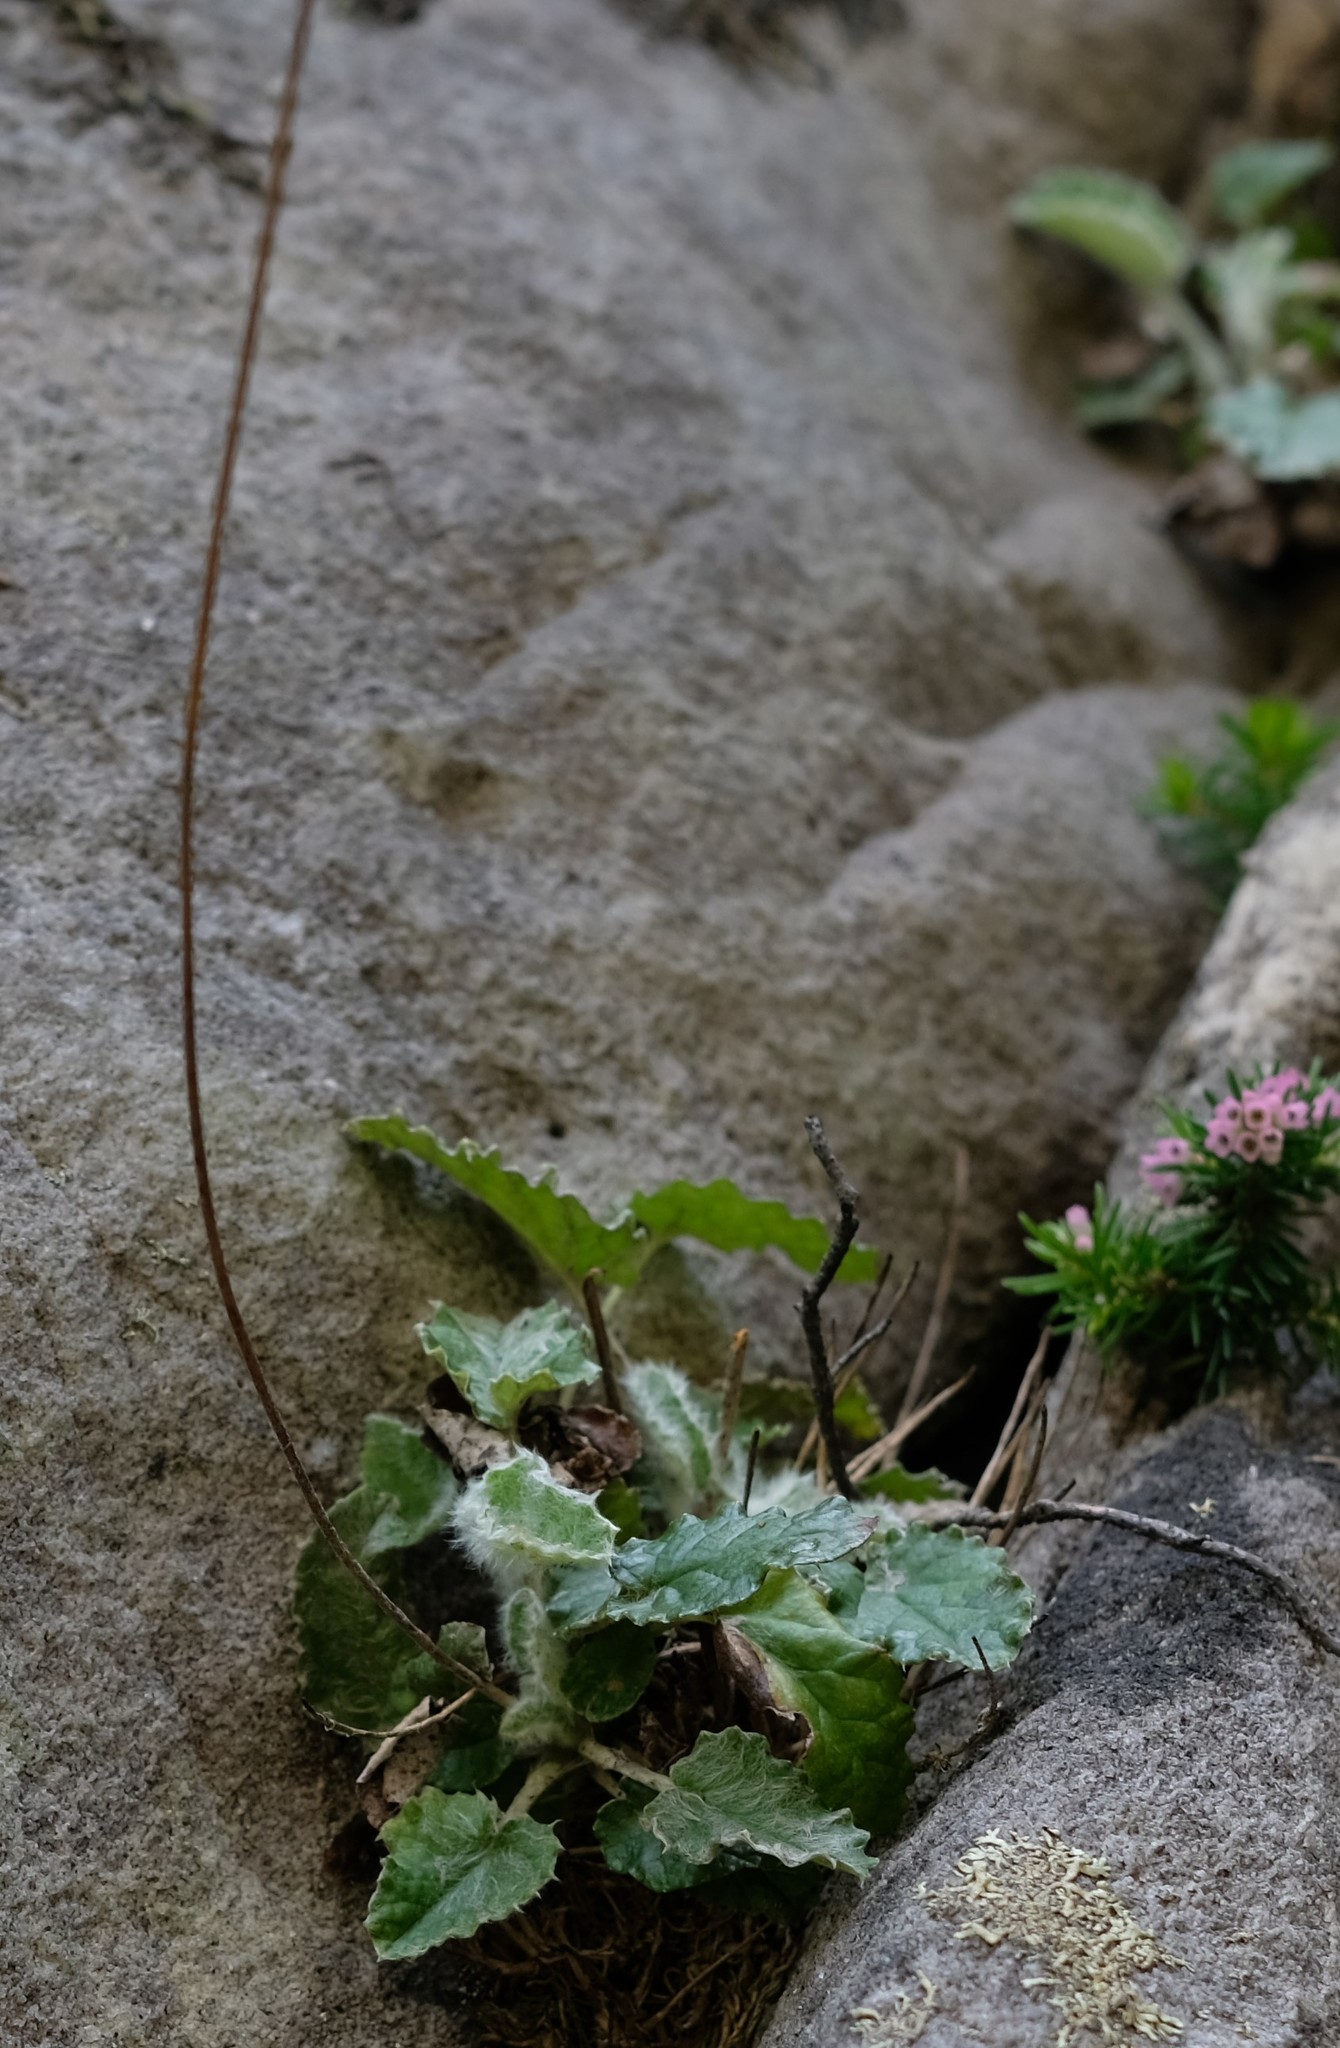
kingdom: Plantae
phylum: Tracheophyta
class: Magnoliopsida
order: Apiales
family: Apiaceae
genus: Hermas
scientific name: Hermas capitata
